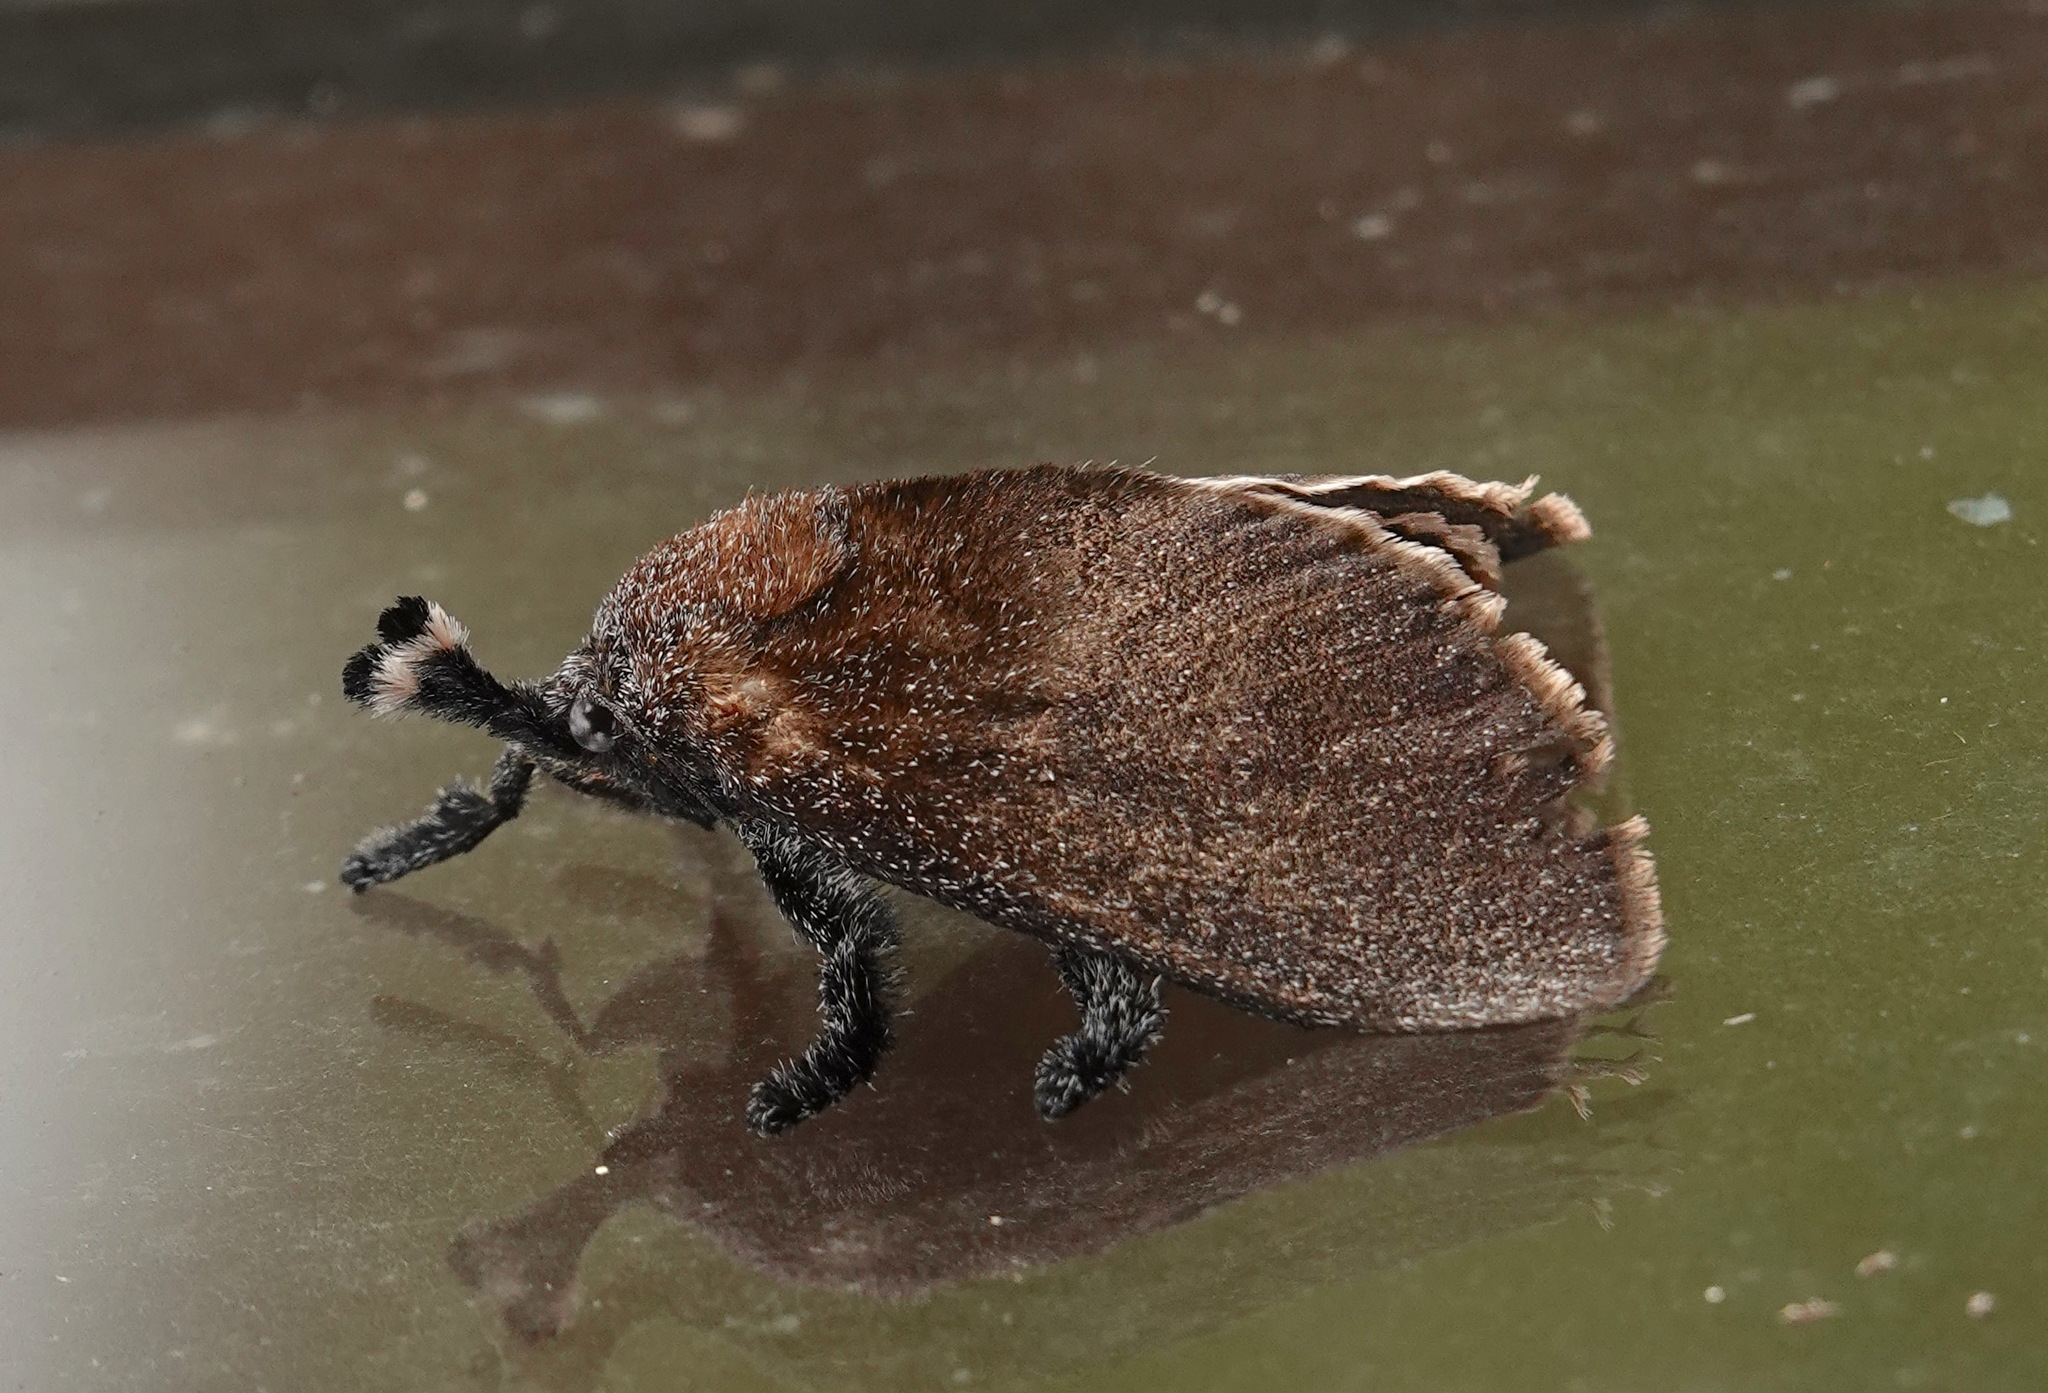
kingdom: Animalia
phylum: Arthropoda
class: Insecta
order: Lepidoptera
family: Limacodidae
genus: Scopelodes
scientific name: Scopelodes albipalpis
